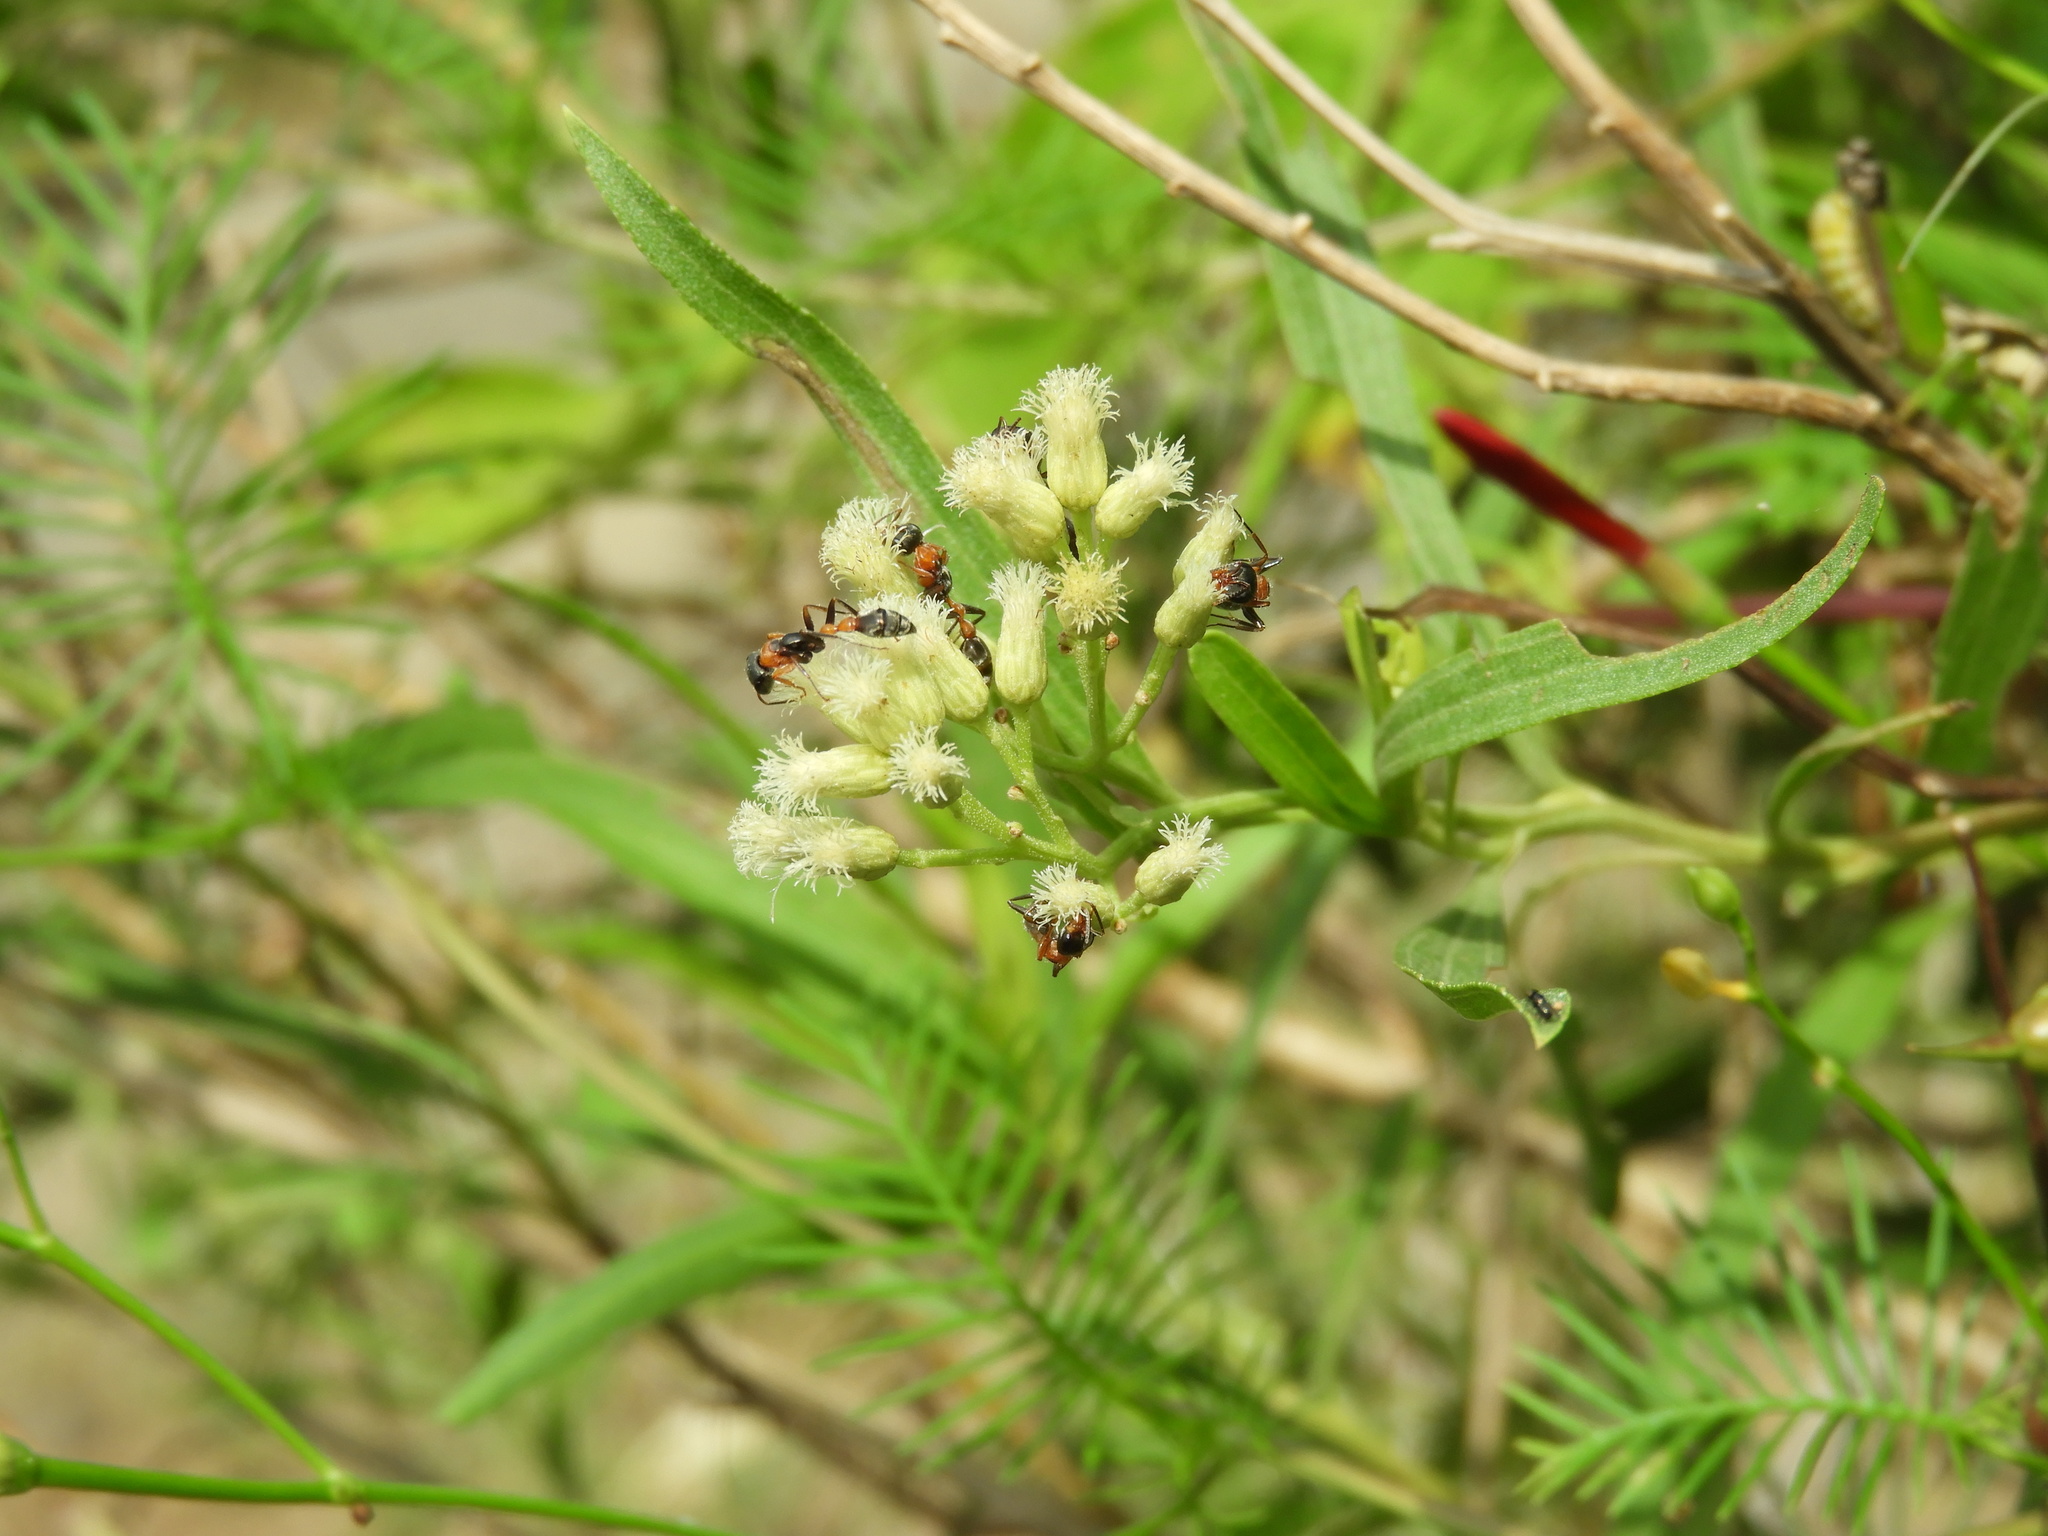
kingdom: Animalia
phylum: Arthropoda
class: Insecta
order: Hymenoptera
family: Formicidae
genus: Pseudomyrmex
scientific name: Pseudomyrmex gracilis
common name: Graceful twig ant
